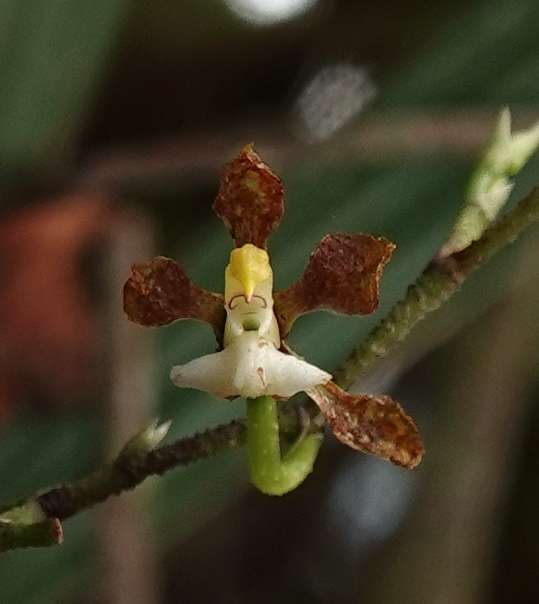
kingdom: Plantae
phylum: Tracheophyta
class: Liliopsida
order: Asparagales
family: Orchidaceae
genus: Cyrtochilum
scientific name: Cyrtochilum scabiosum
